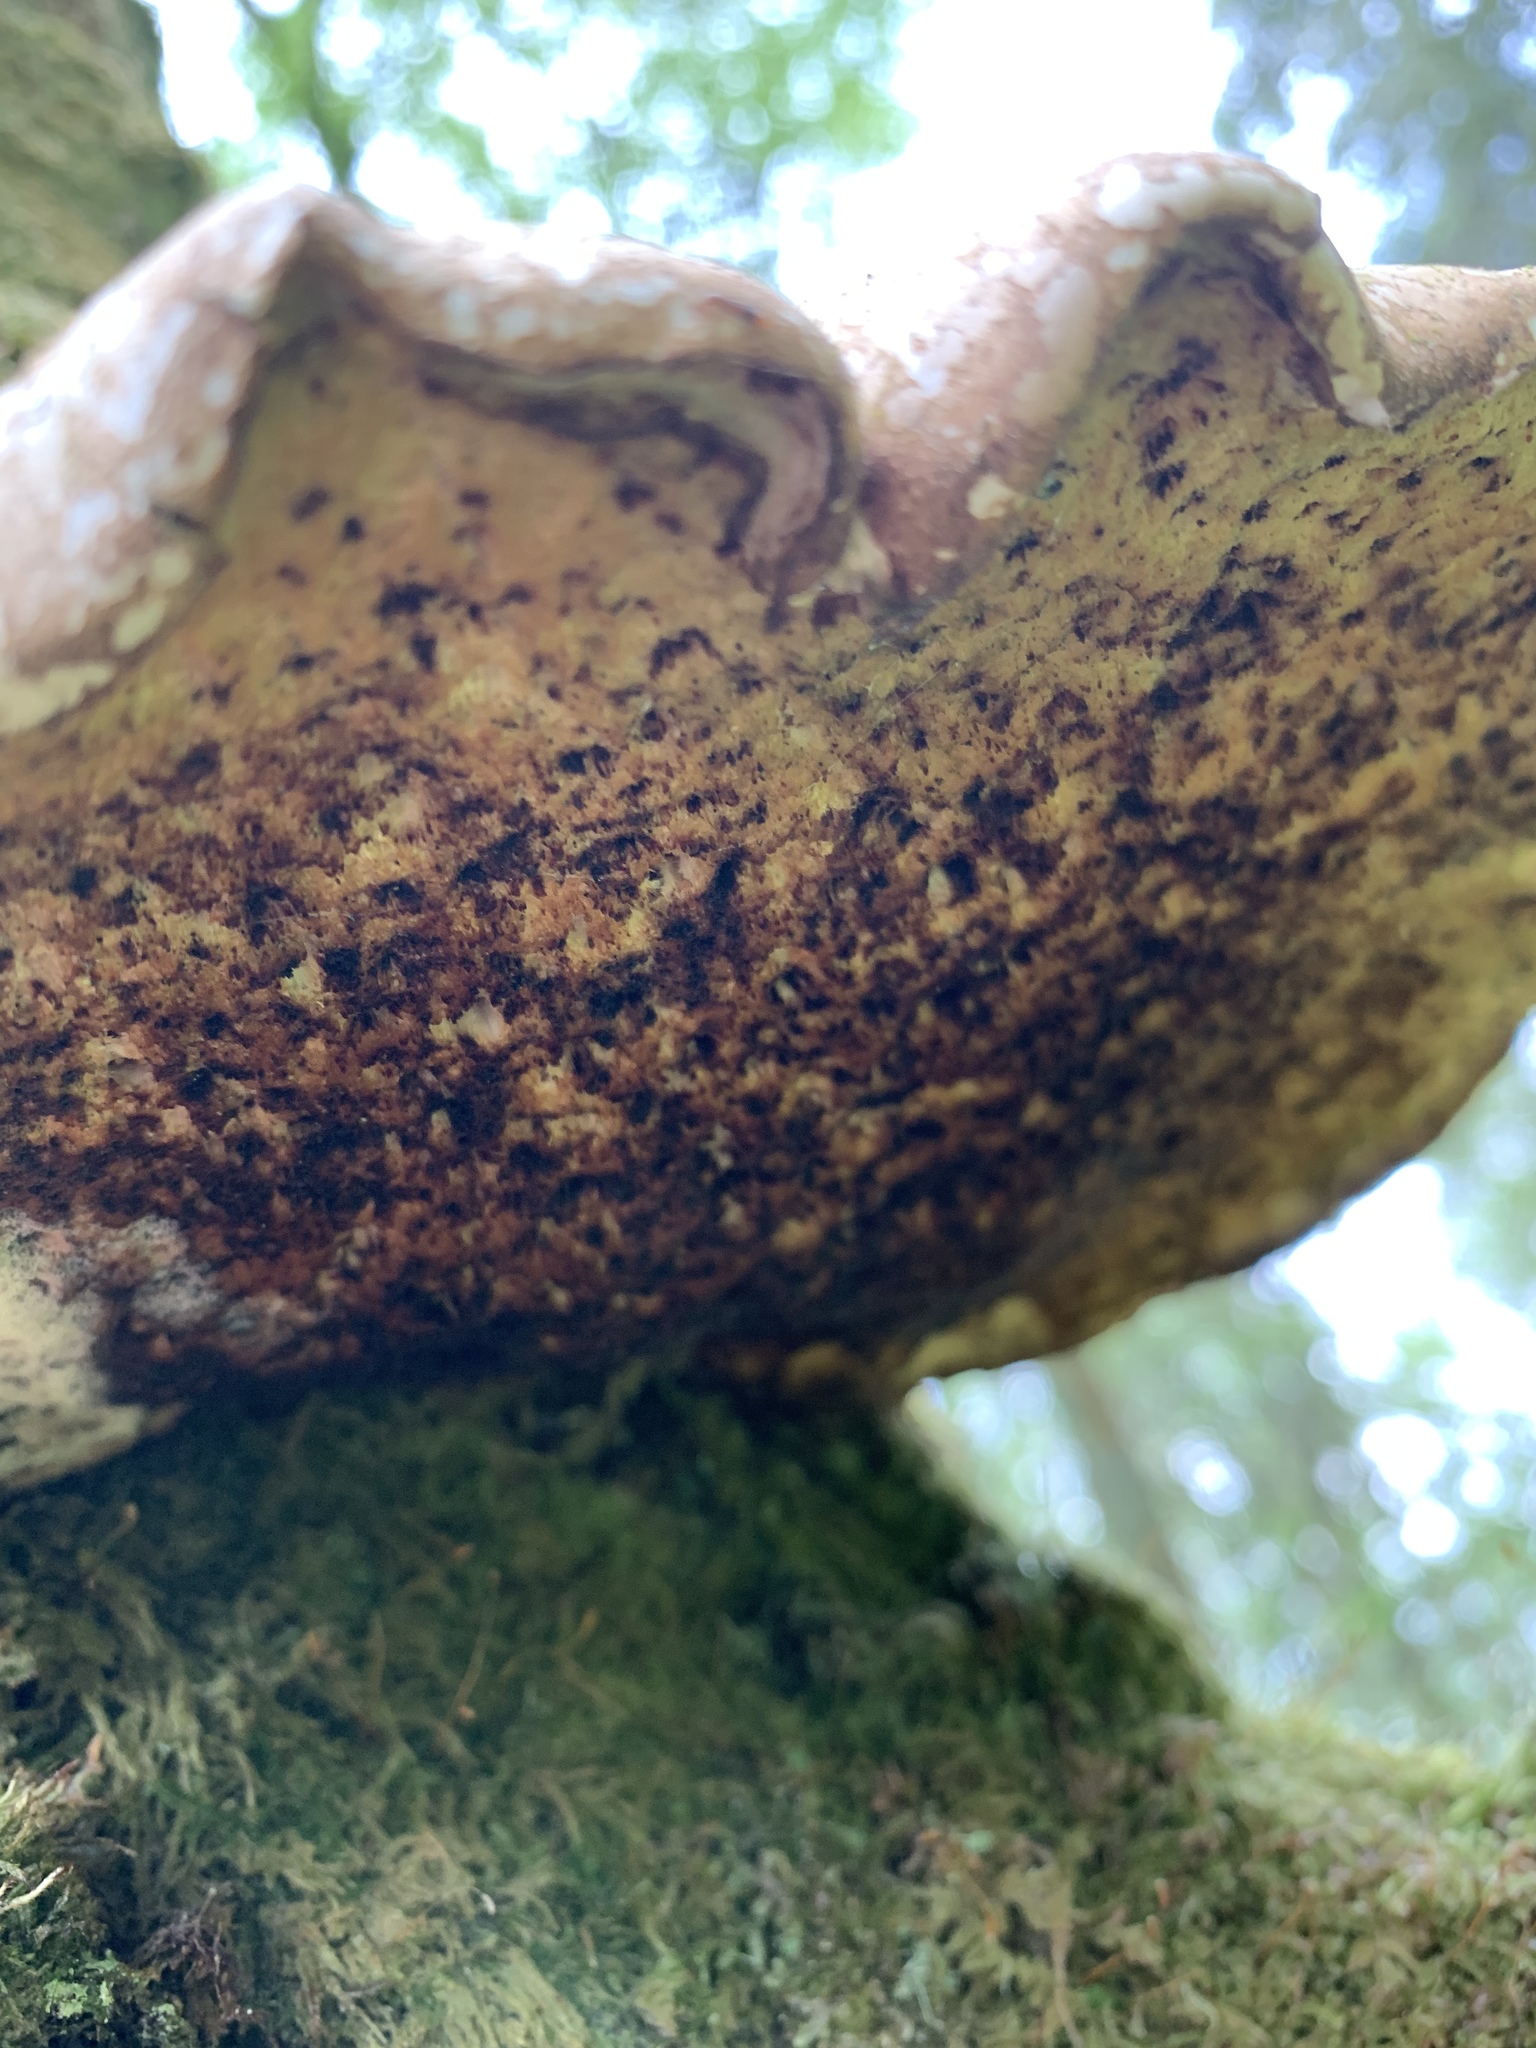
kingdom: Fungi
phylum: Basidiomycota
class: Agaricomycetes
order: Polyporales
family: Fomitopsidaceae
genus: Fomitopsis
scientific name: Fomitopsis betulina
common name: Birch polypore
